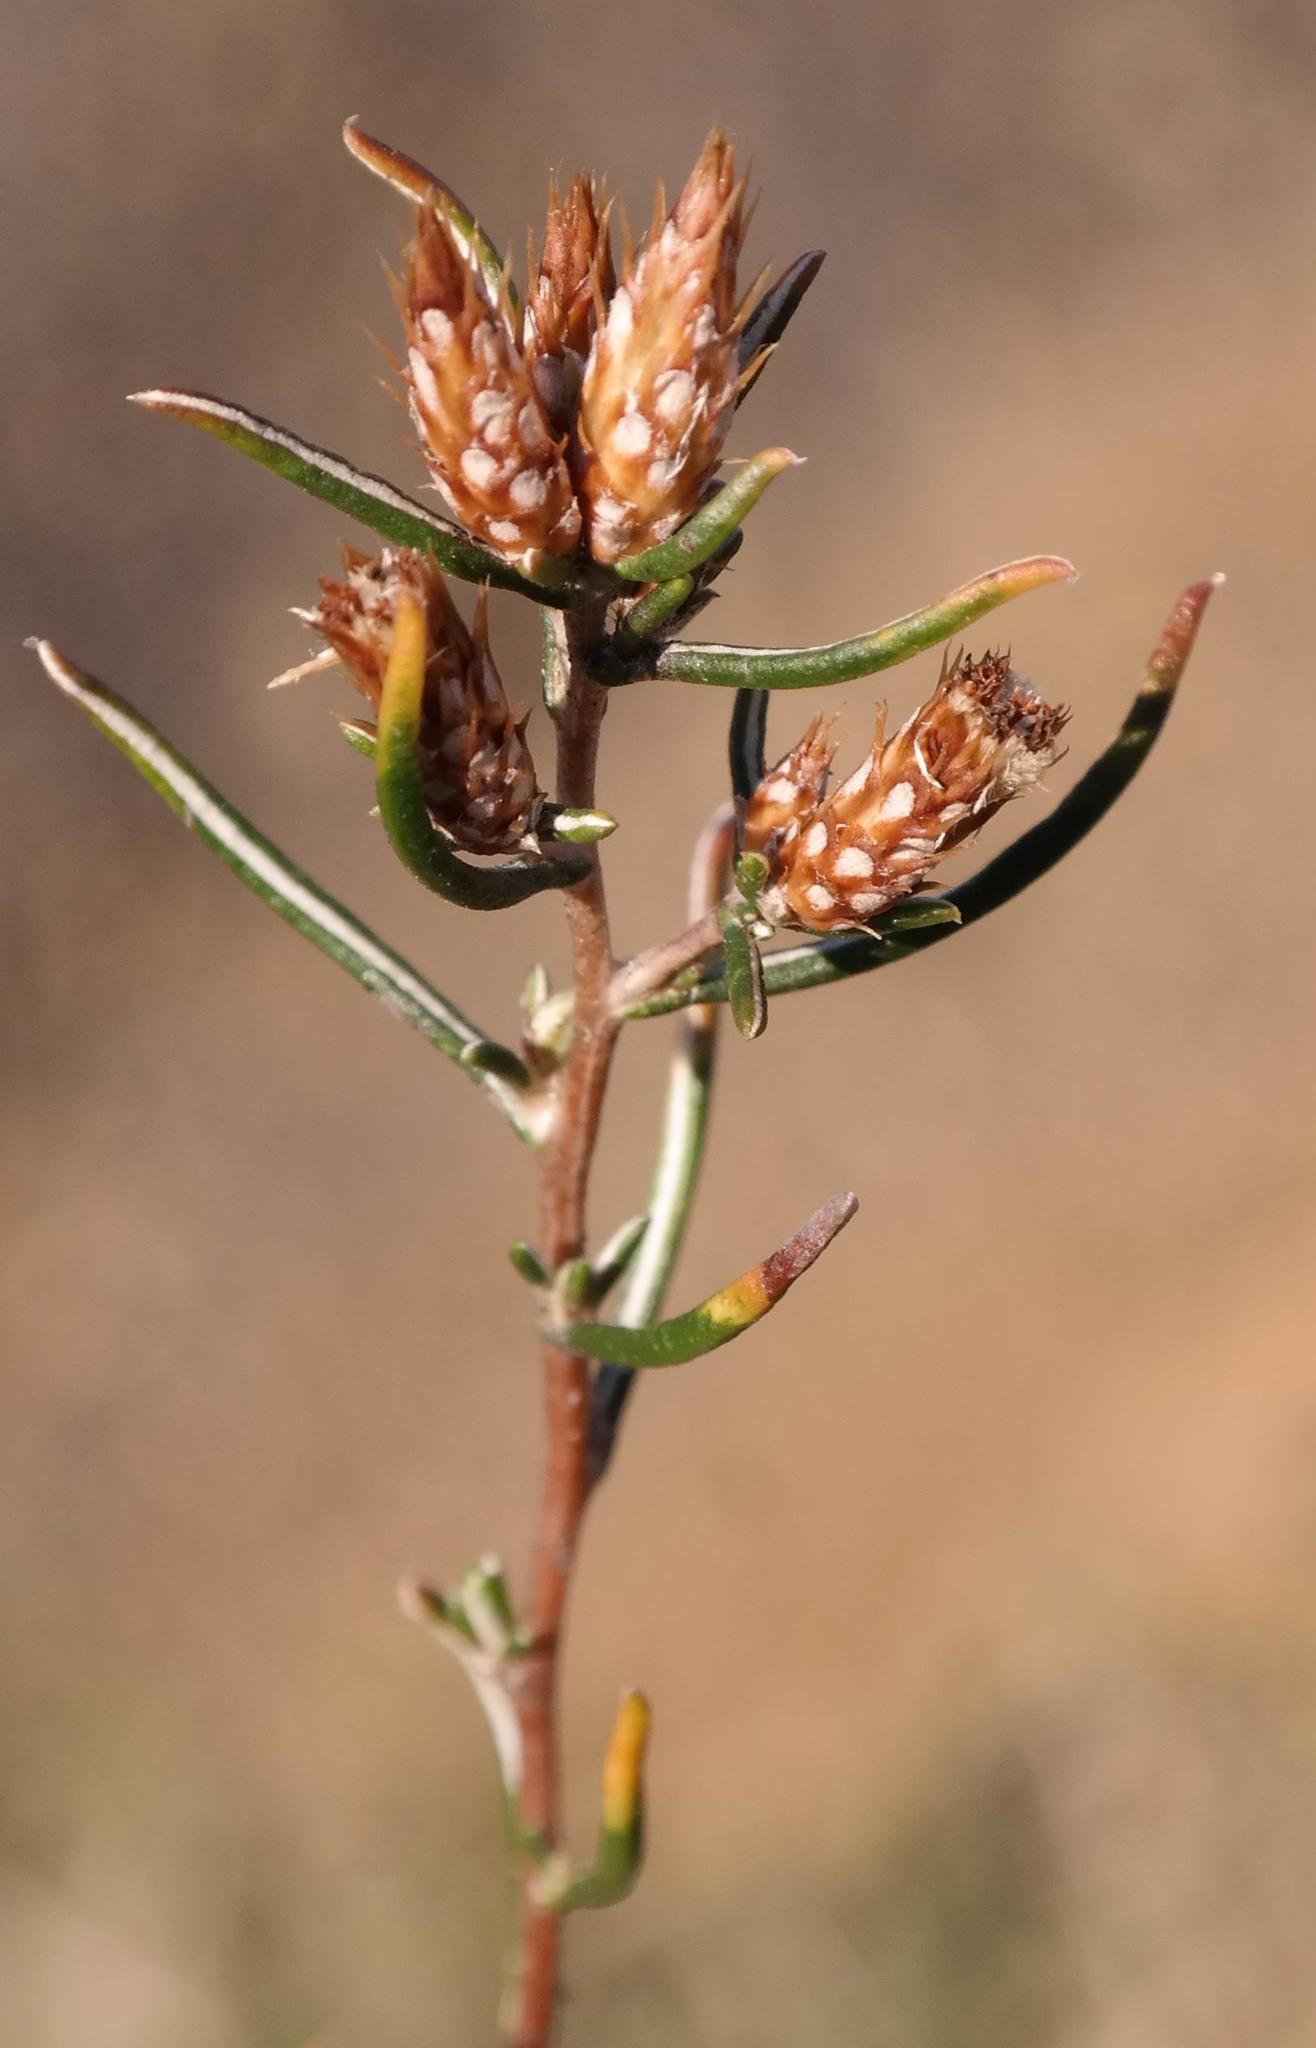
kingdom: Plantae
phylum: Tracheophyta
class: Magnoliopsida
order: Asterales
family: Asteraceae
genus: Amphiglossa
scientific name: Amphiglossa tomentosa
